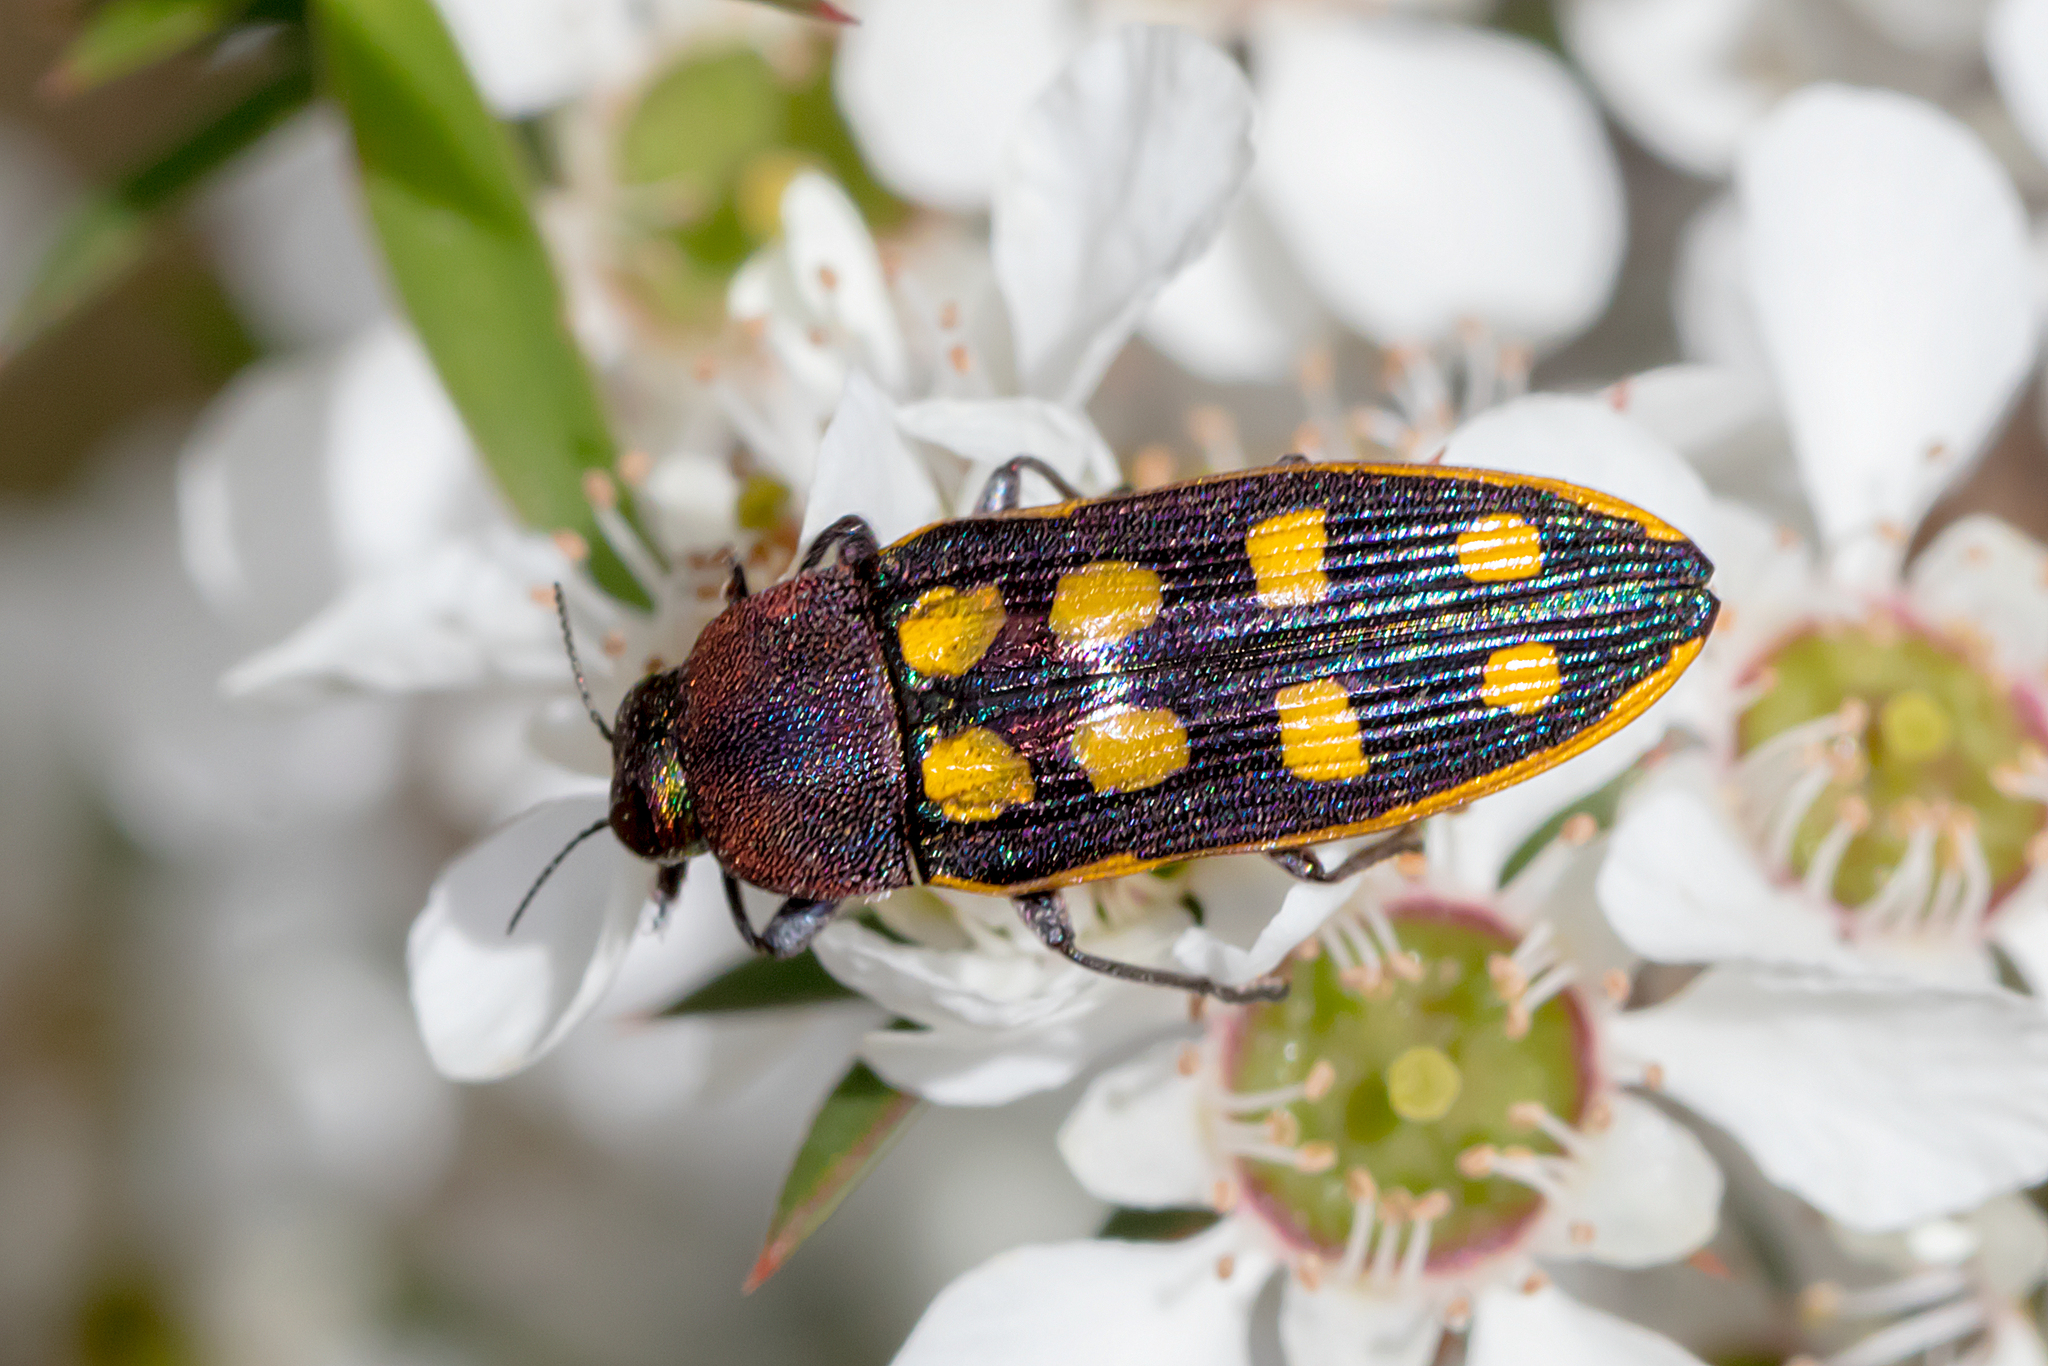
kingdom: Animalia
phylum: Arthropoda
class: Insecta
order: Coleoptera
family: Buprestidae
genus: Castiarina
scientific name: Castiarina xanthopilosa
